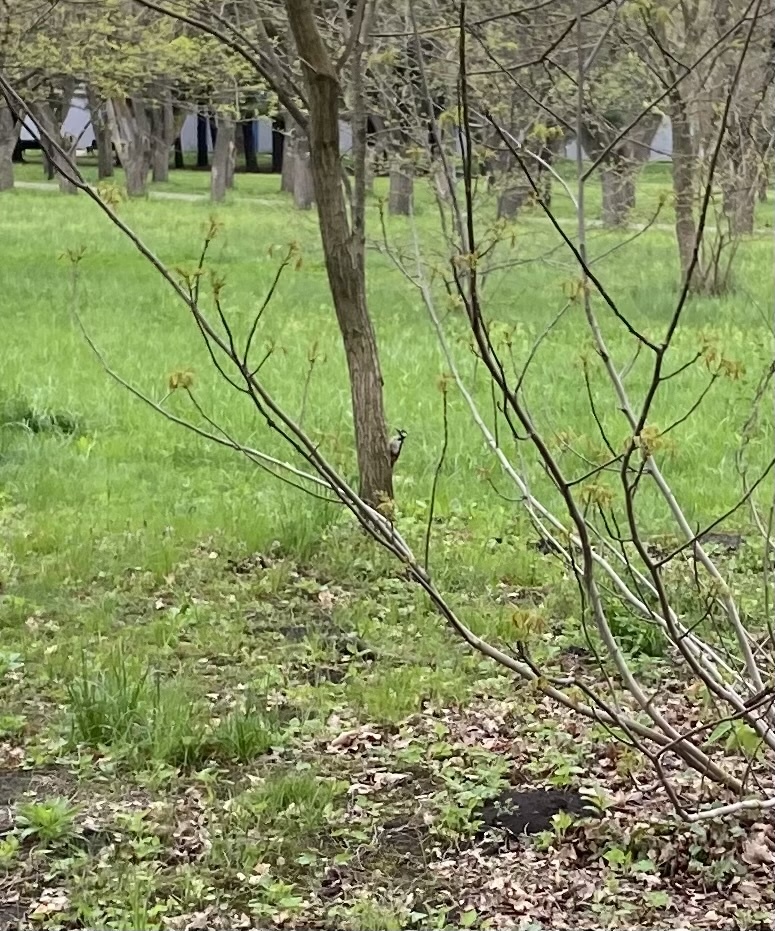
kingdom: Animalia
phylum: Chordata
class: Aves
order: Piciformes
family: Picidae
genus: Dendrocopos
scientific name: Dendrocopos major
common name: Great spotted woodpecker
